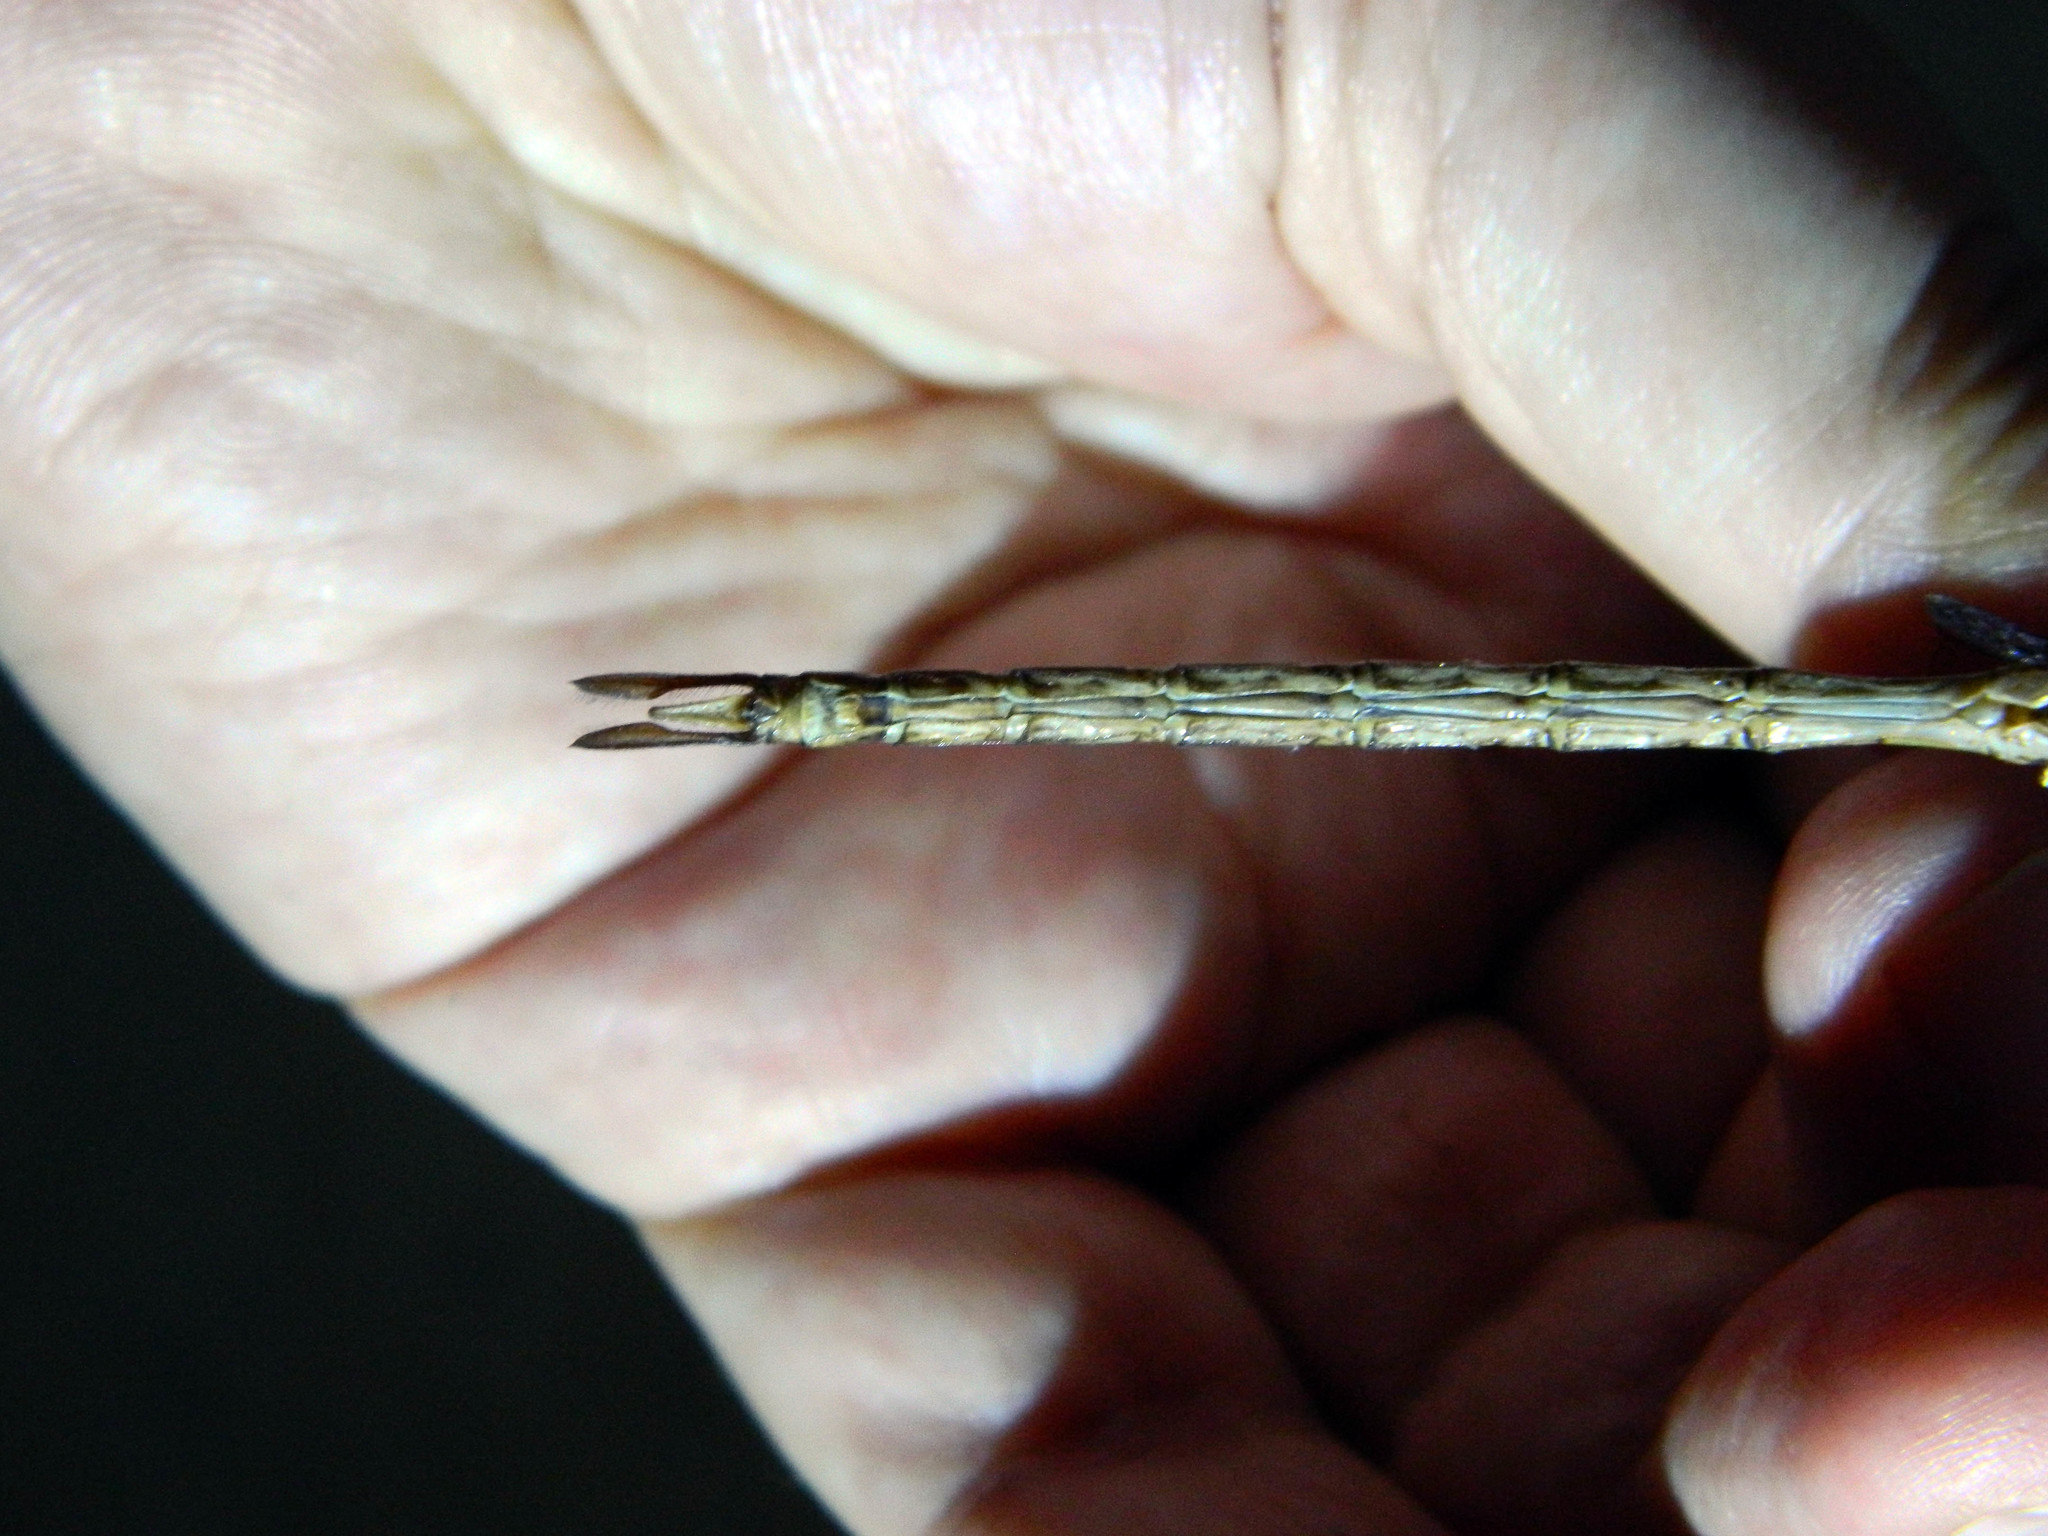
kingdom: Animalia
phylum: Arthropoda
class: Insecta
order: Odonata
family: Aeshnidae
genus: Gynacantha
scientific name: Gynacantha nervosa
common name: Twilight darner
